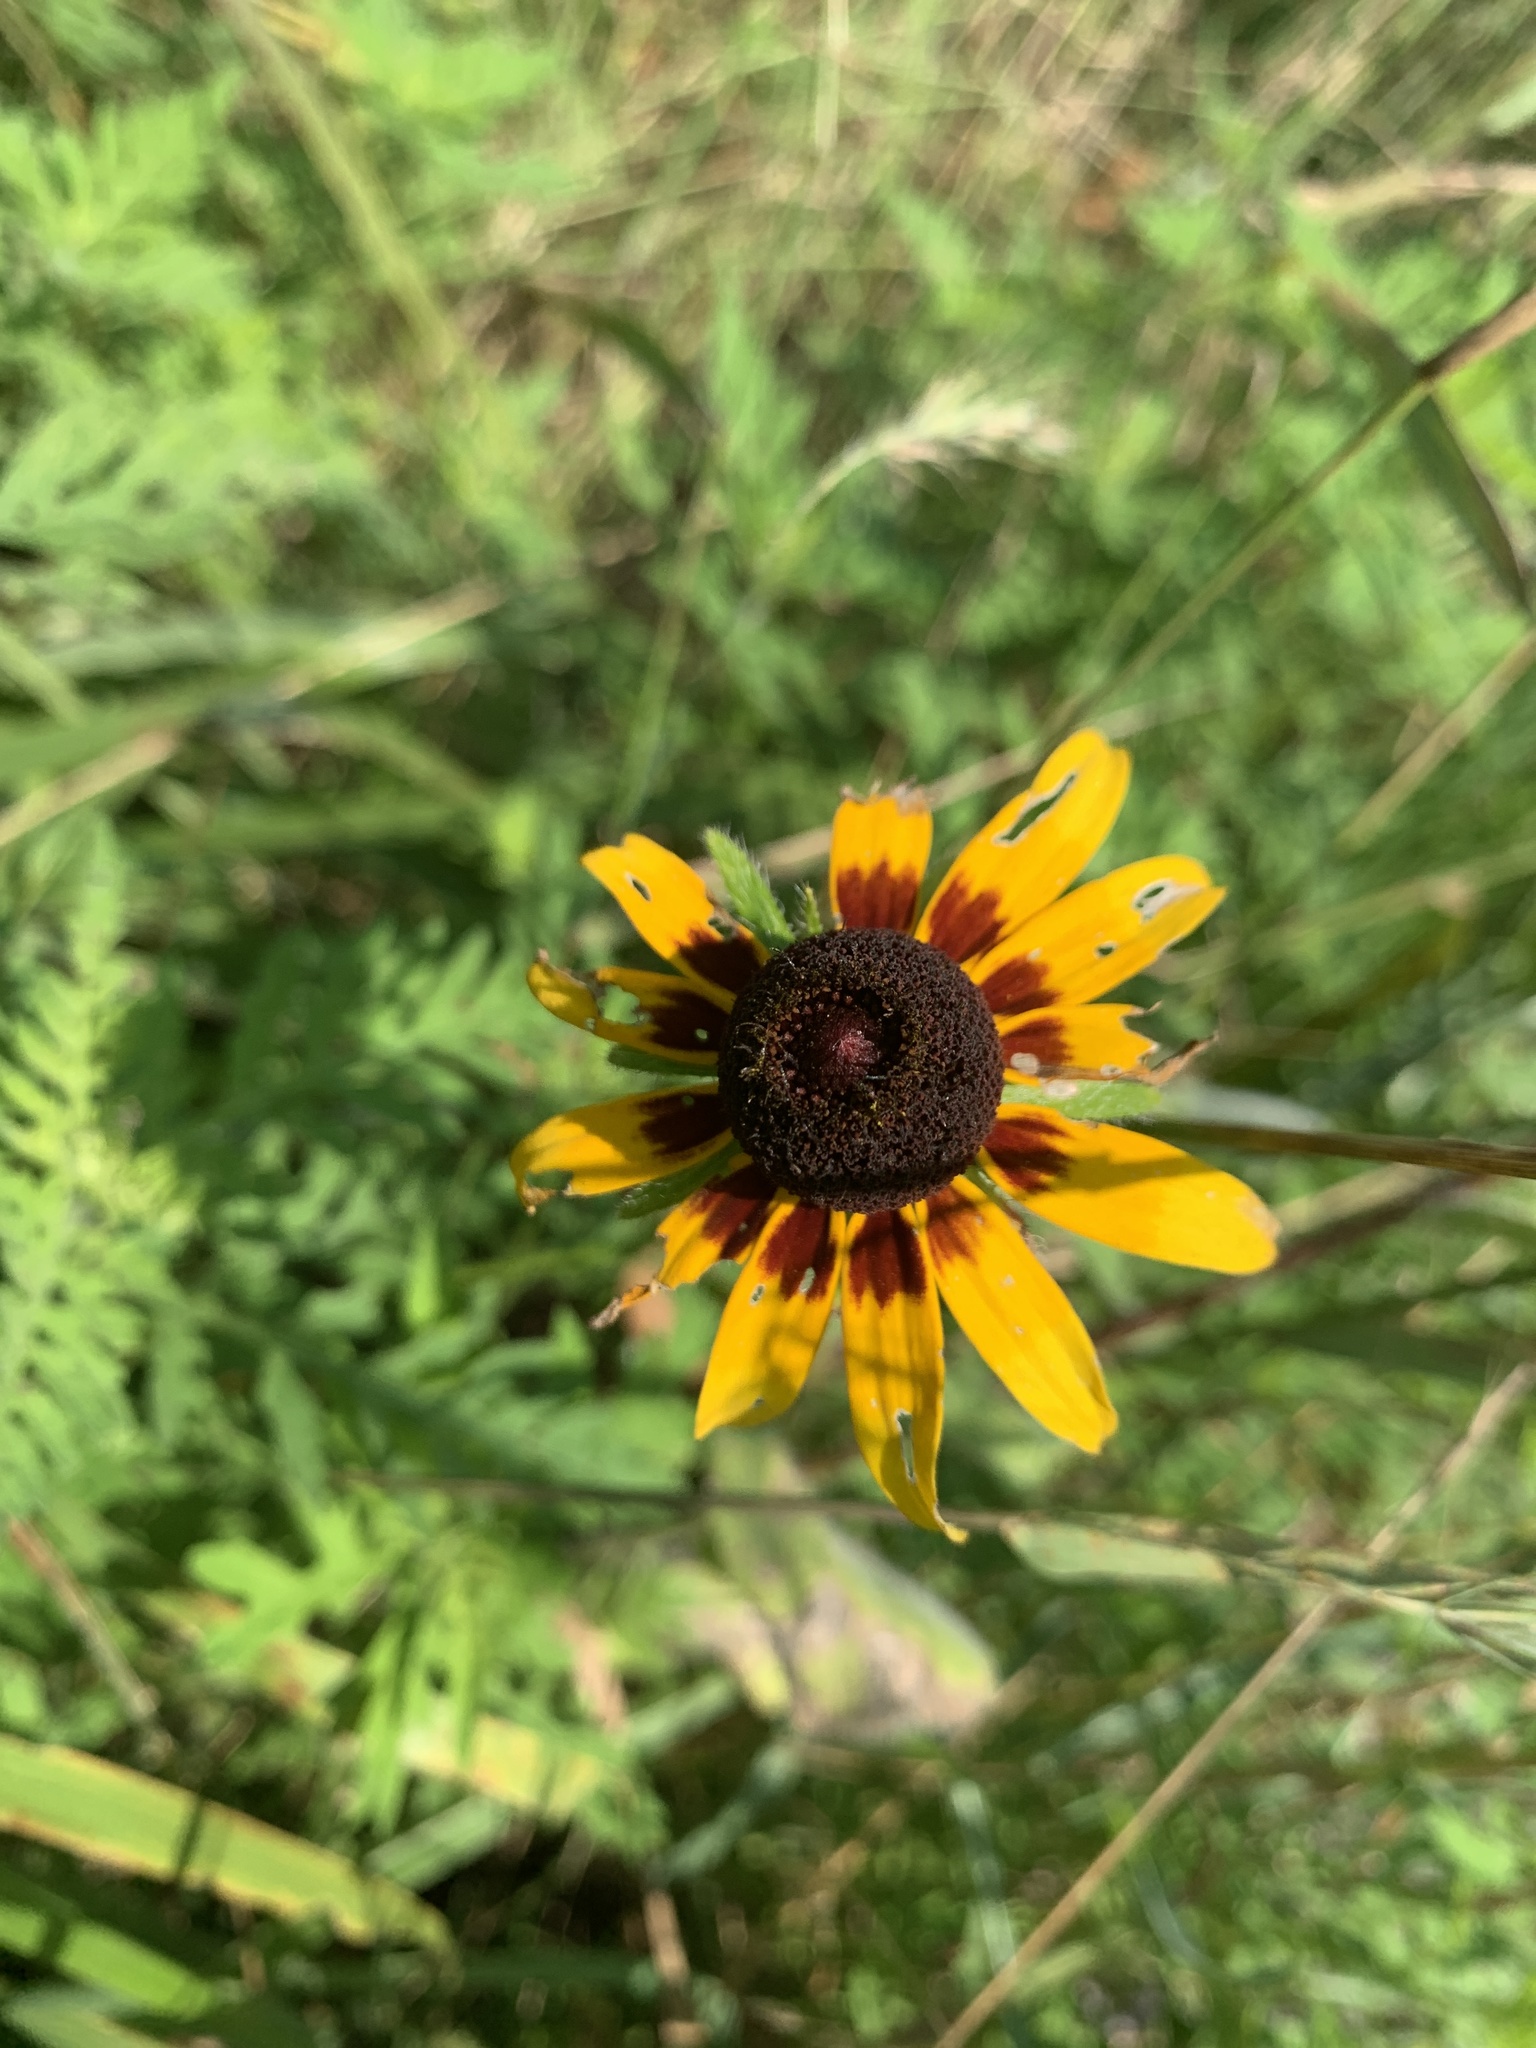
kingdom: Plantae
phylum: Tracheophyta
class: Magnoliopsida
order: Asterales
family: Asteraceae
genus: Rudbeckia
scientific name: Rudbeckia hirta
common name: Black-eyed-susan
